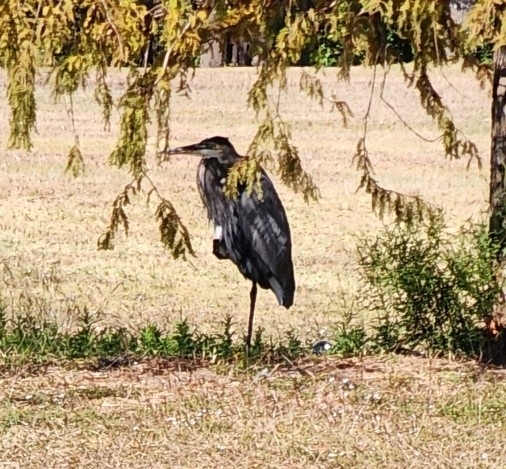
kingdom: Animalia
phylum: Chordata
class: Aves
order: Pelecaniformes
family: Ardeidae
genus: Ardea
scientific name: Ardea herodias
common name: Great blue heron
